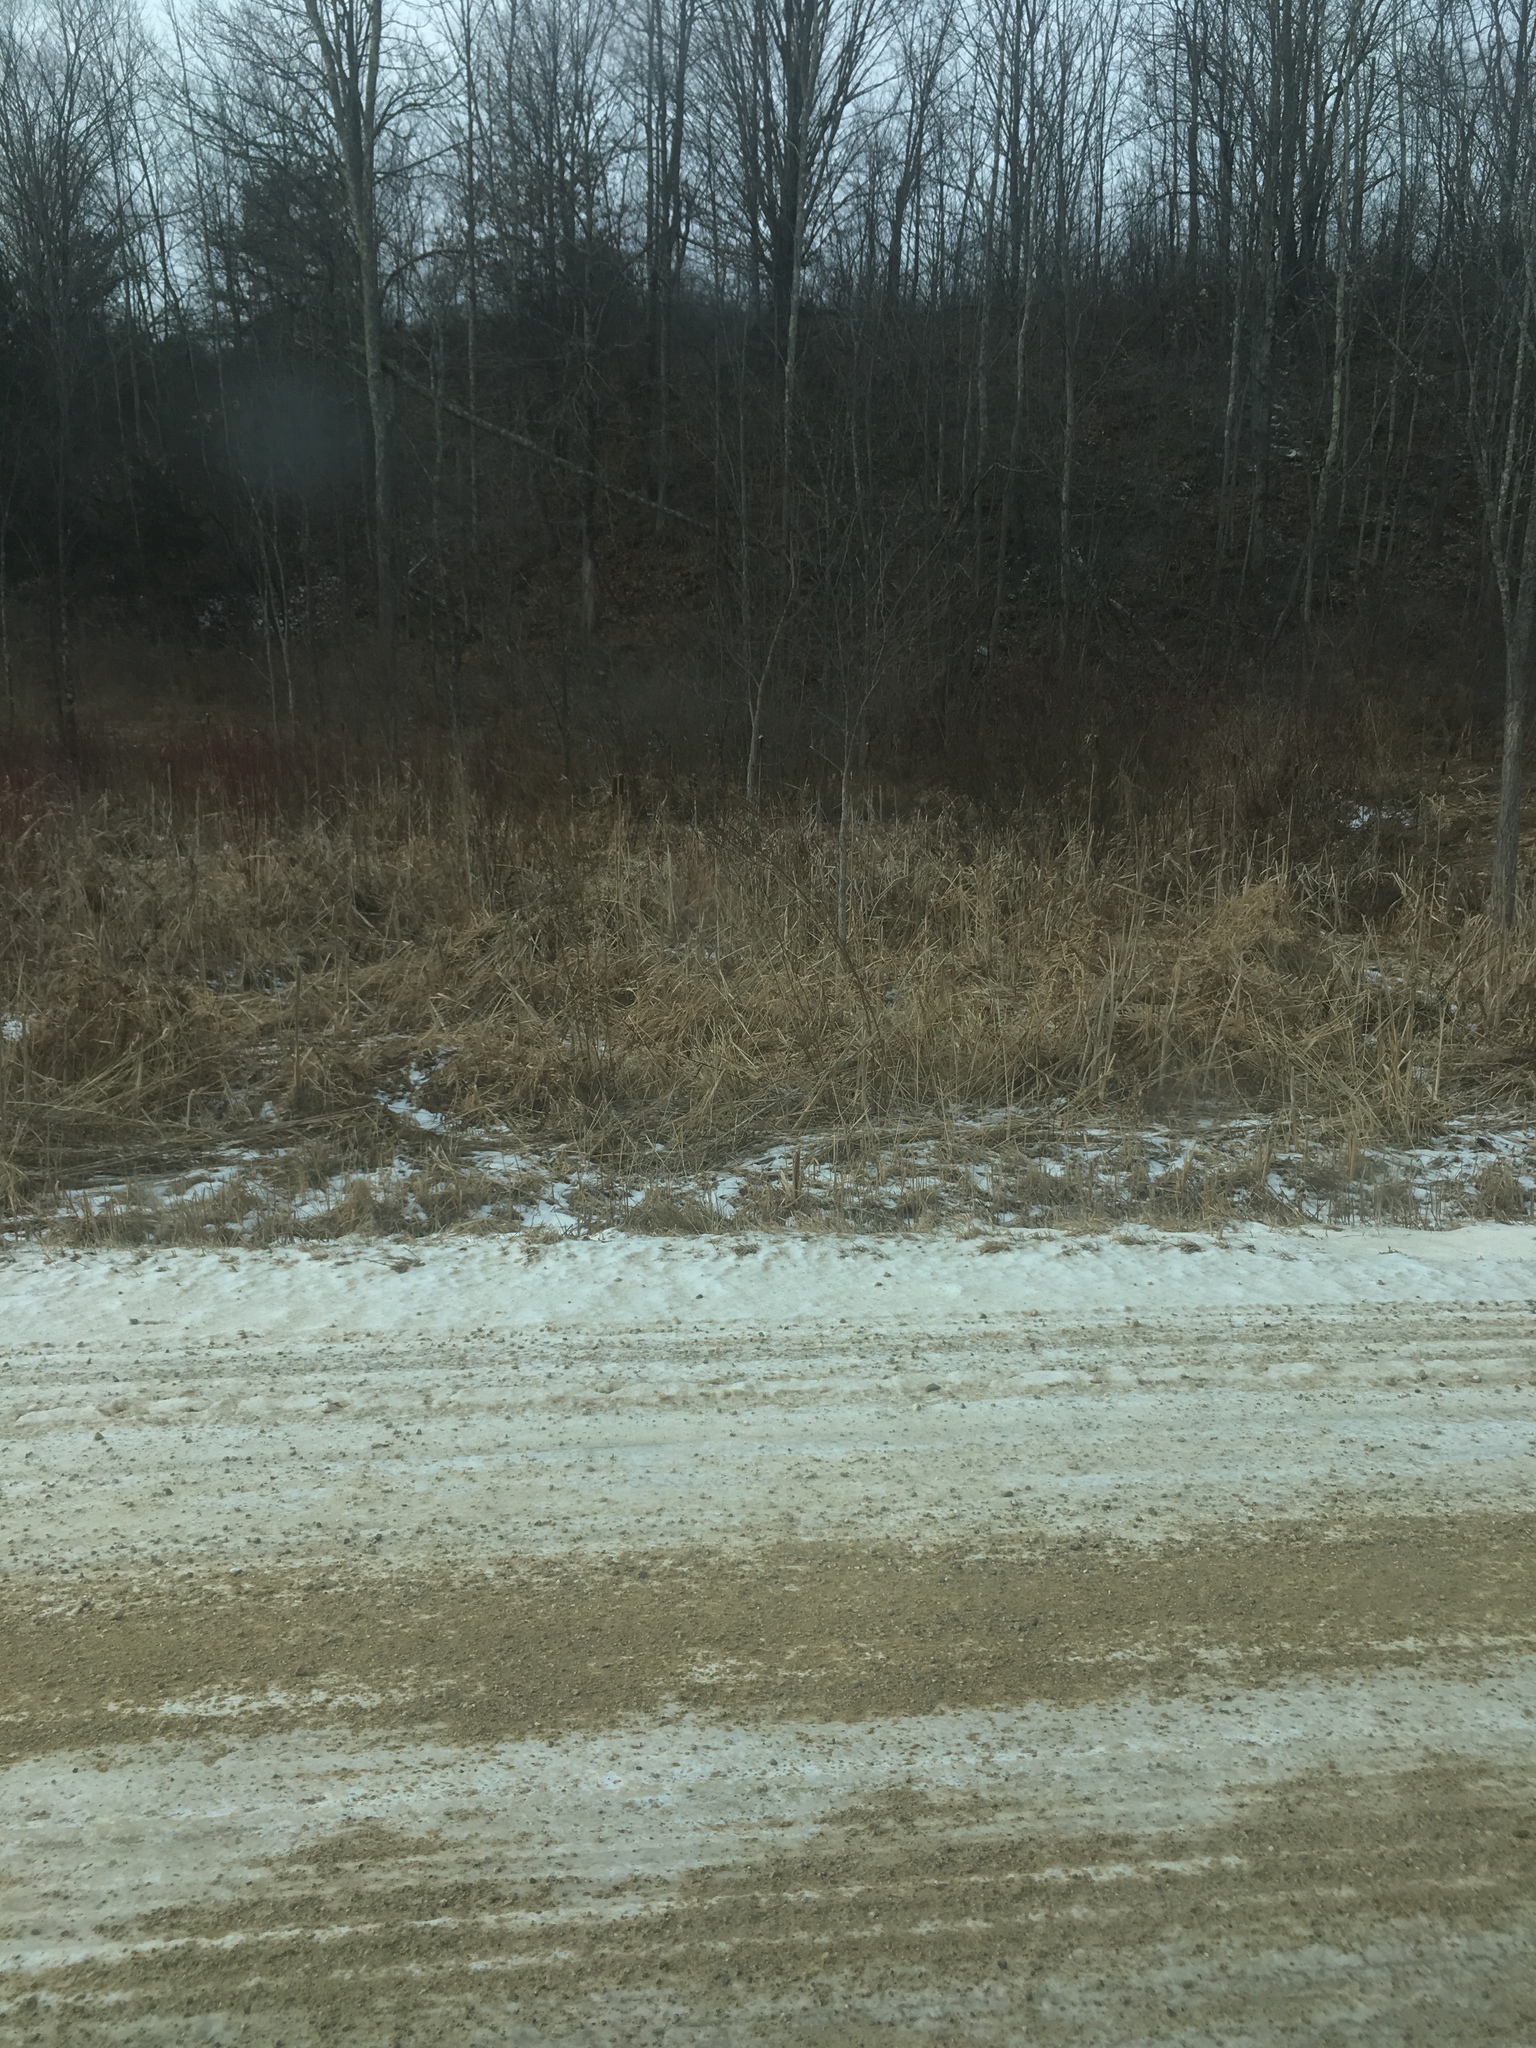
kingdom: Plantae
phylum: Tracheophyta
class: Liliopsida
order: Poales
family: Typhaceae
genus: Typha
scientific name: Typha
